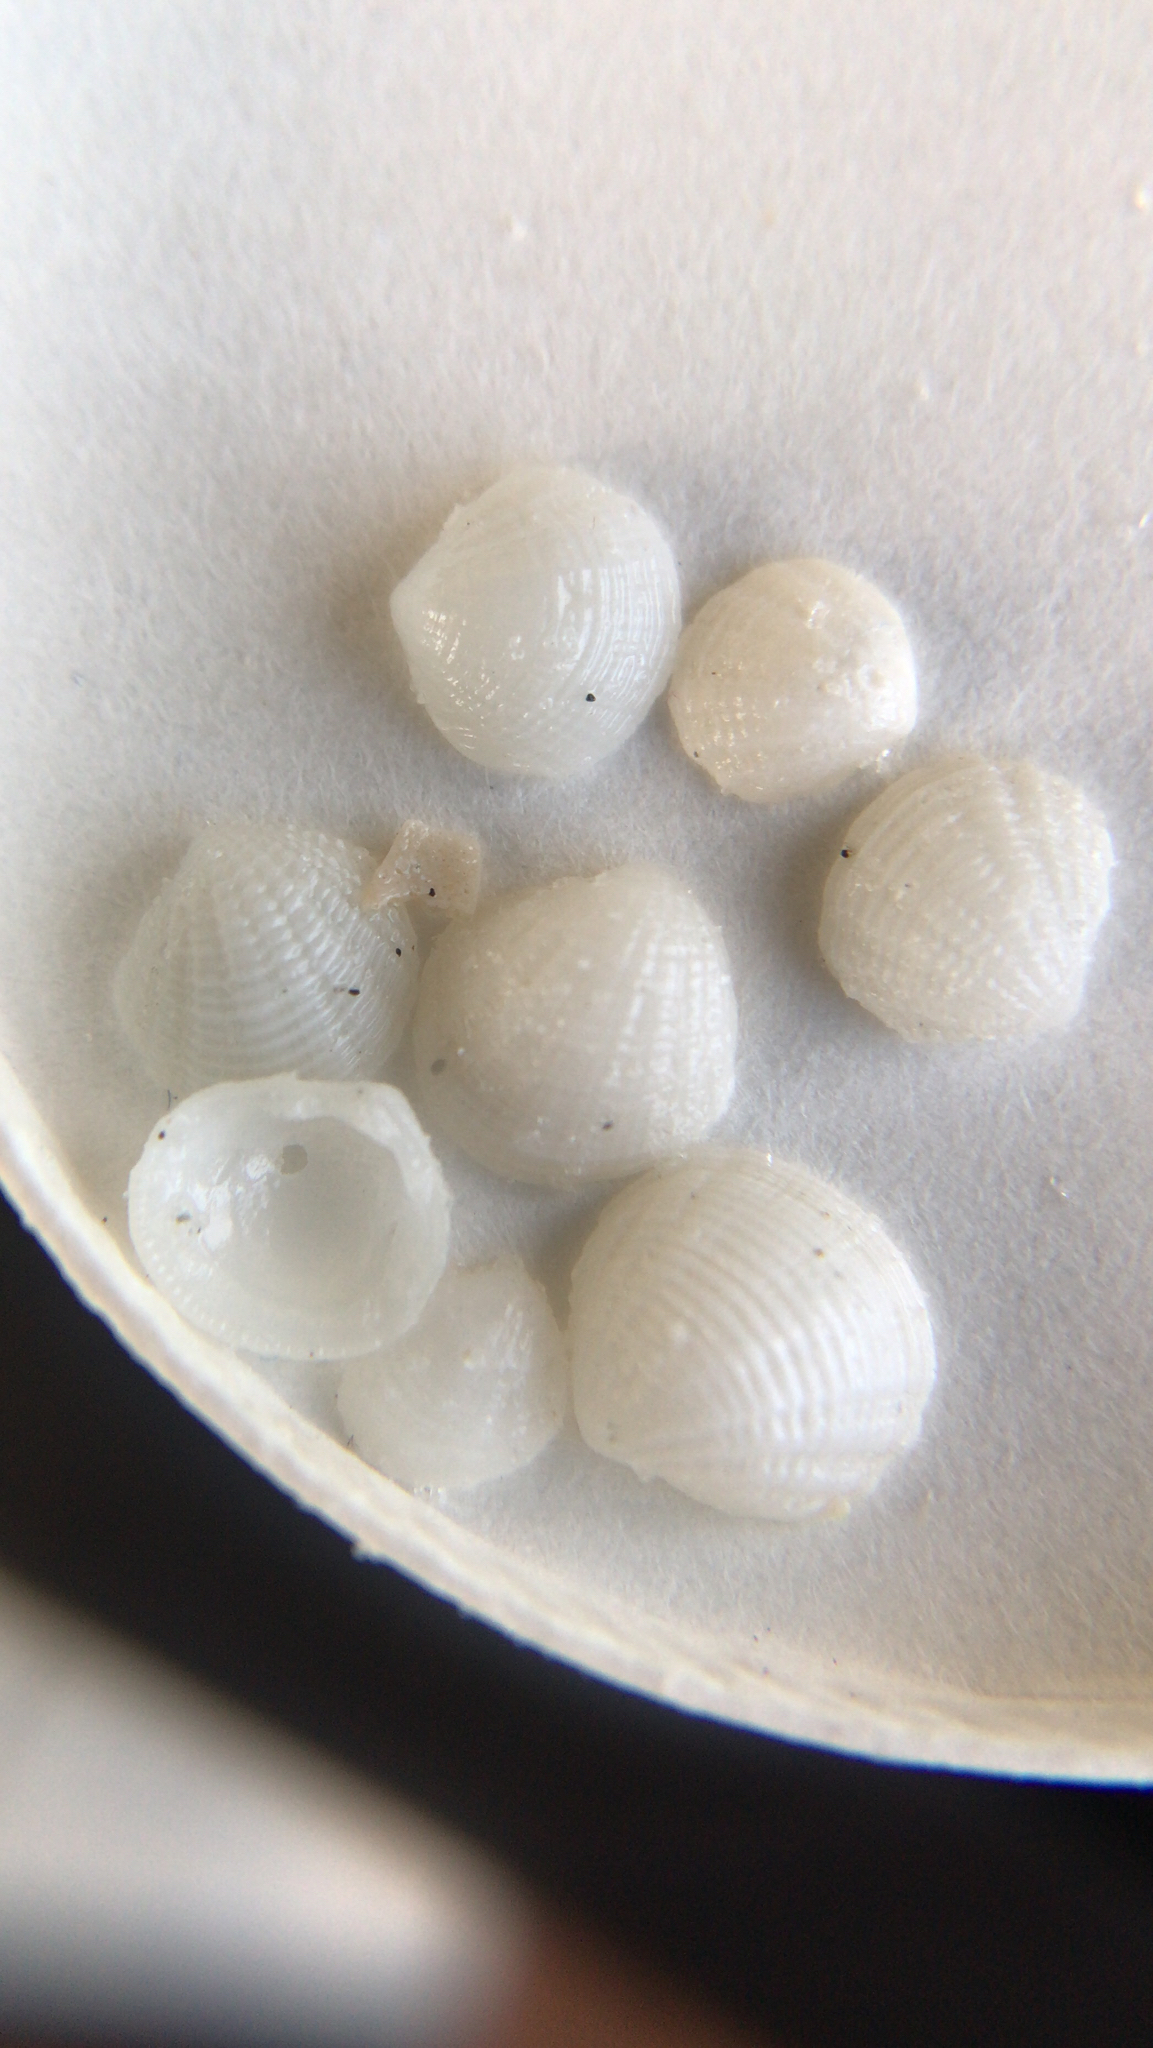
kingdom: Animalia
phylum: Mollusca
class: Bivalvia
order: Lucinida
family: Lucinidae
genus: Radiolucina
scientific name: Radiolucina amianta
